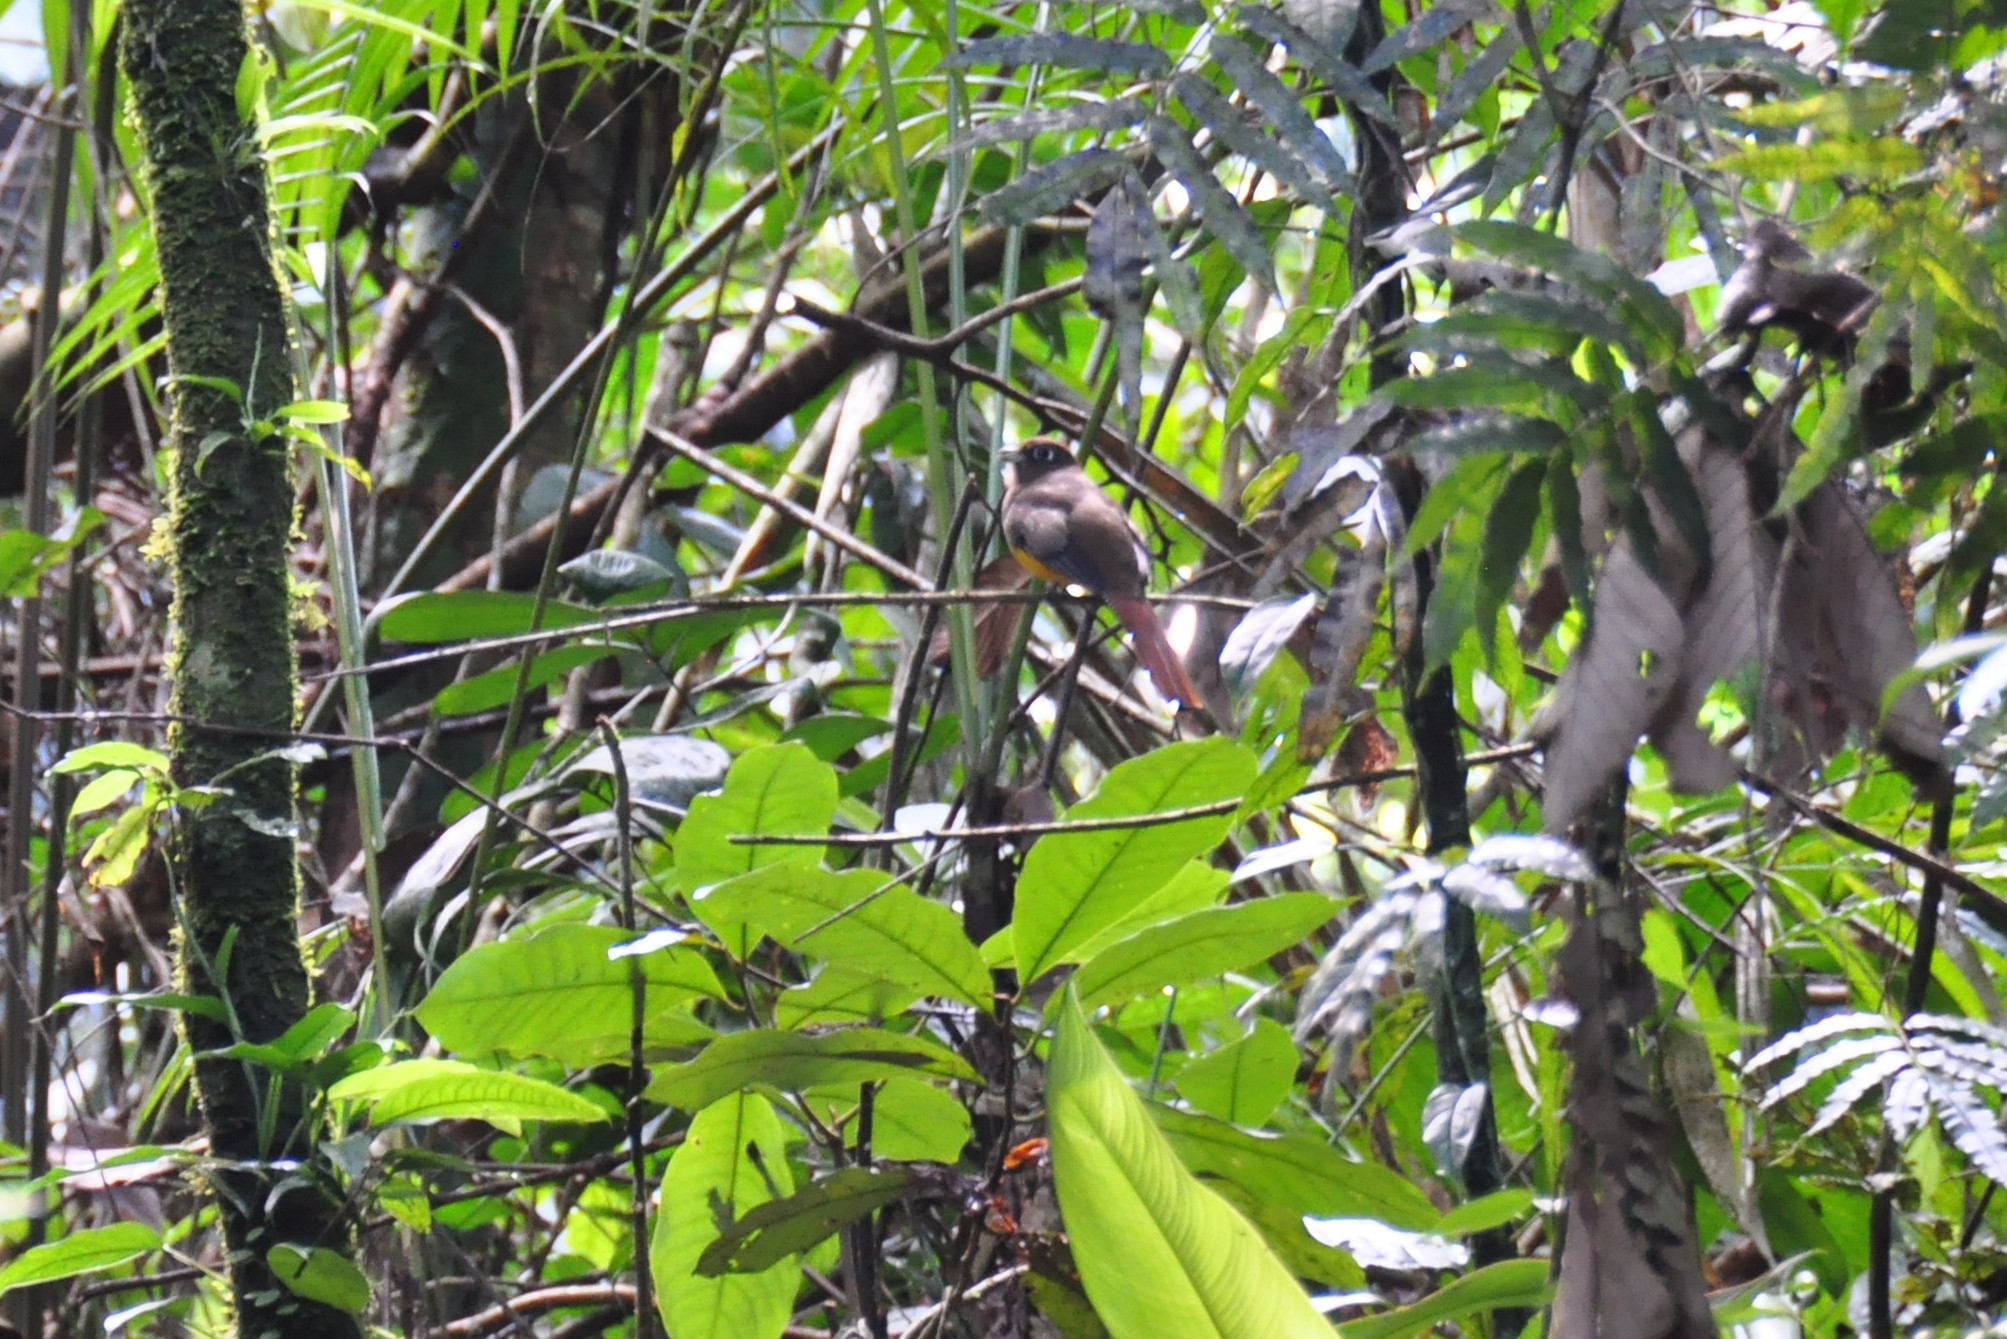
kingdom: Animalia
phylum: Chordata
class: Aves
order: Trogoniformes
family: Trogonidae
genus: Trogon
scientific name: Trogon rufus
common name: Black-throated trogon
